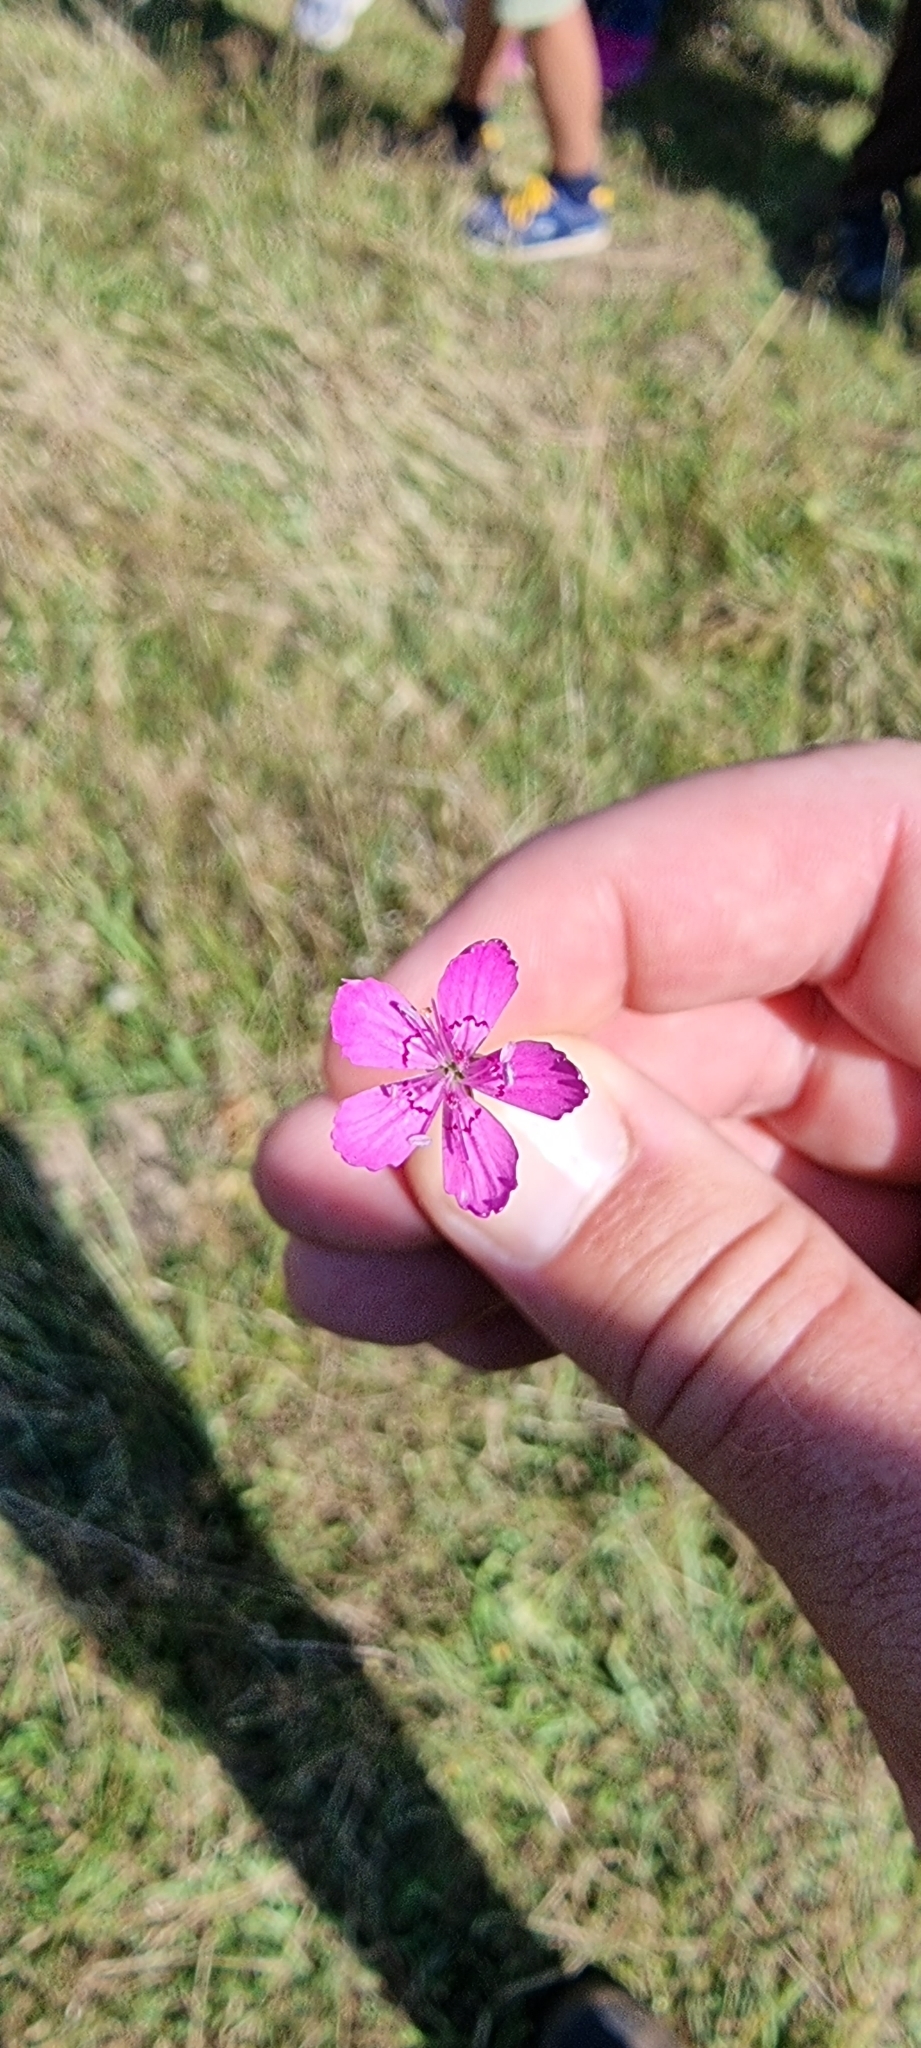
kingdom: Plantae
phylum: Tracheophyta
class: Magnoliopsida
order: Caryophyllales
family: Caryophyllaceae
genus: Dianthus
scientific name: Dianthus deltoides
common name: Maiden pink
